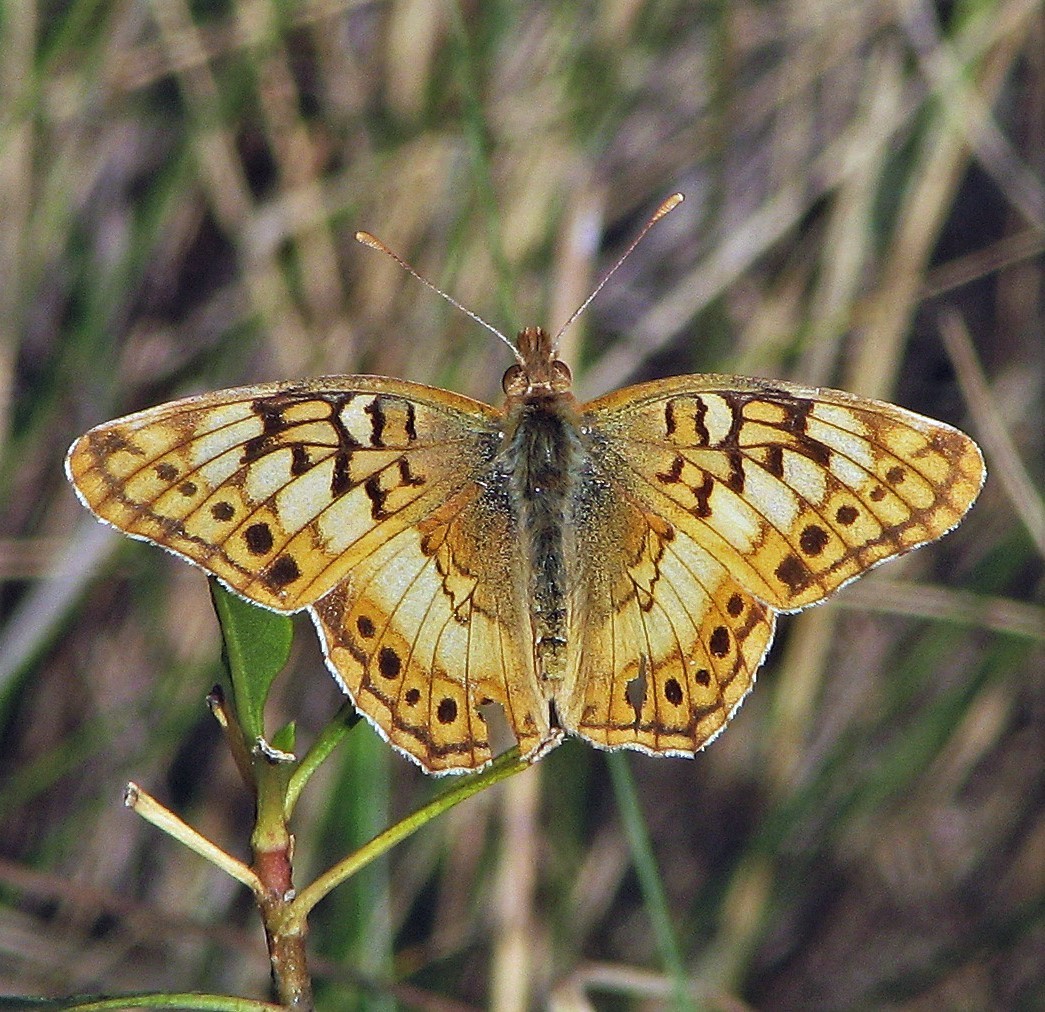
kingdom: Animalia
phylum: Arthropoda
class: Insecta
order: Lepidoptera
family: Nymphalidae
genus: Euptoieta
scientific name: Euptoieta hortensia
